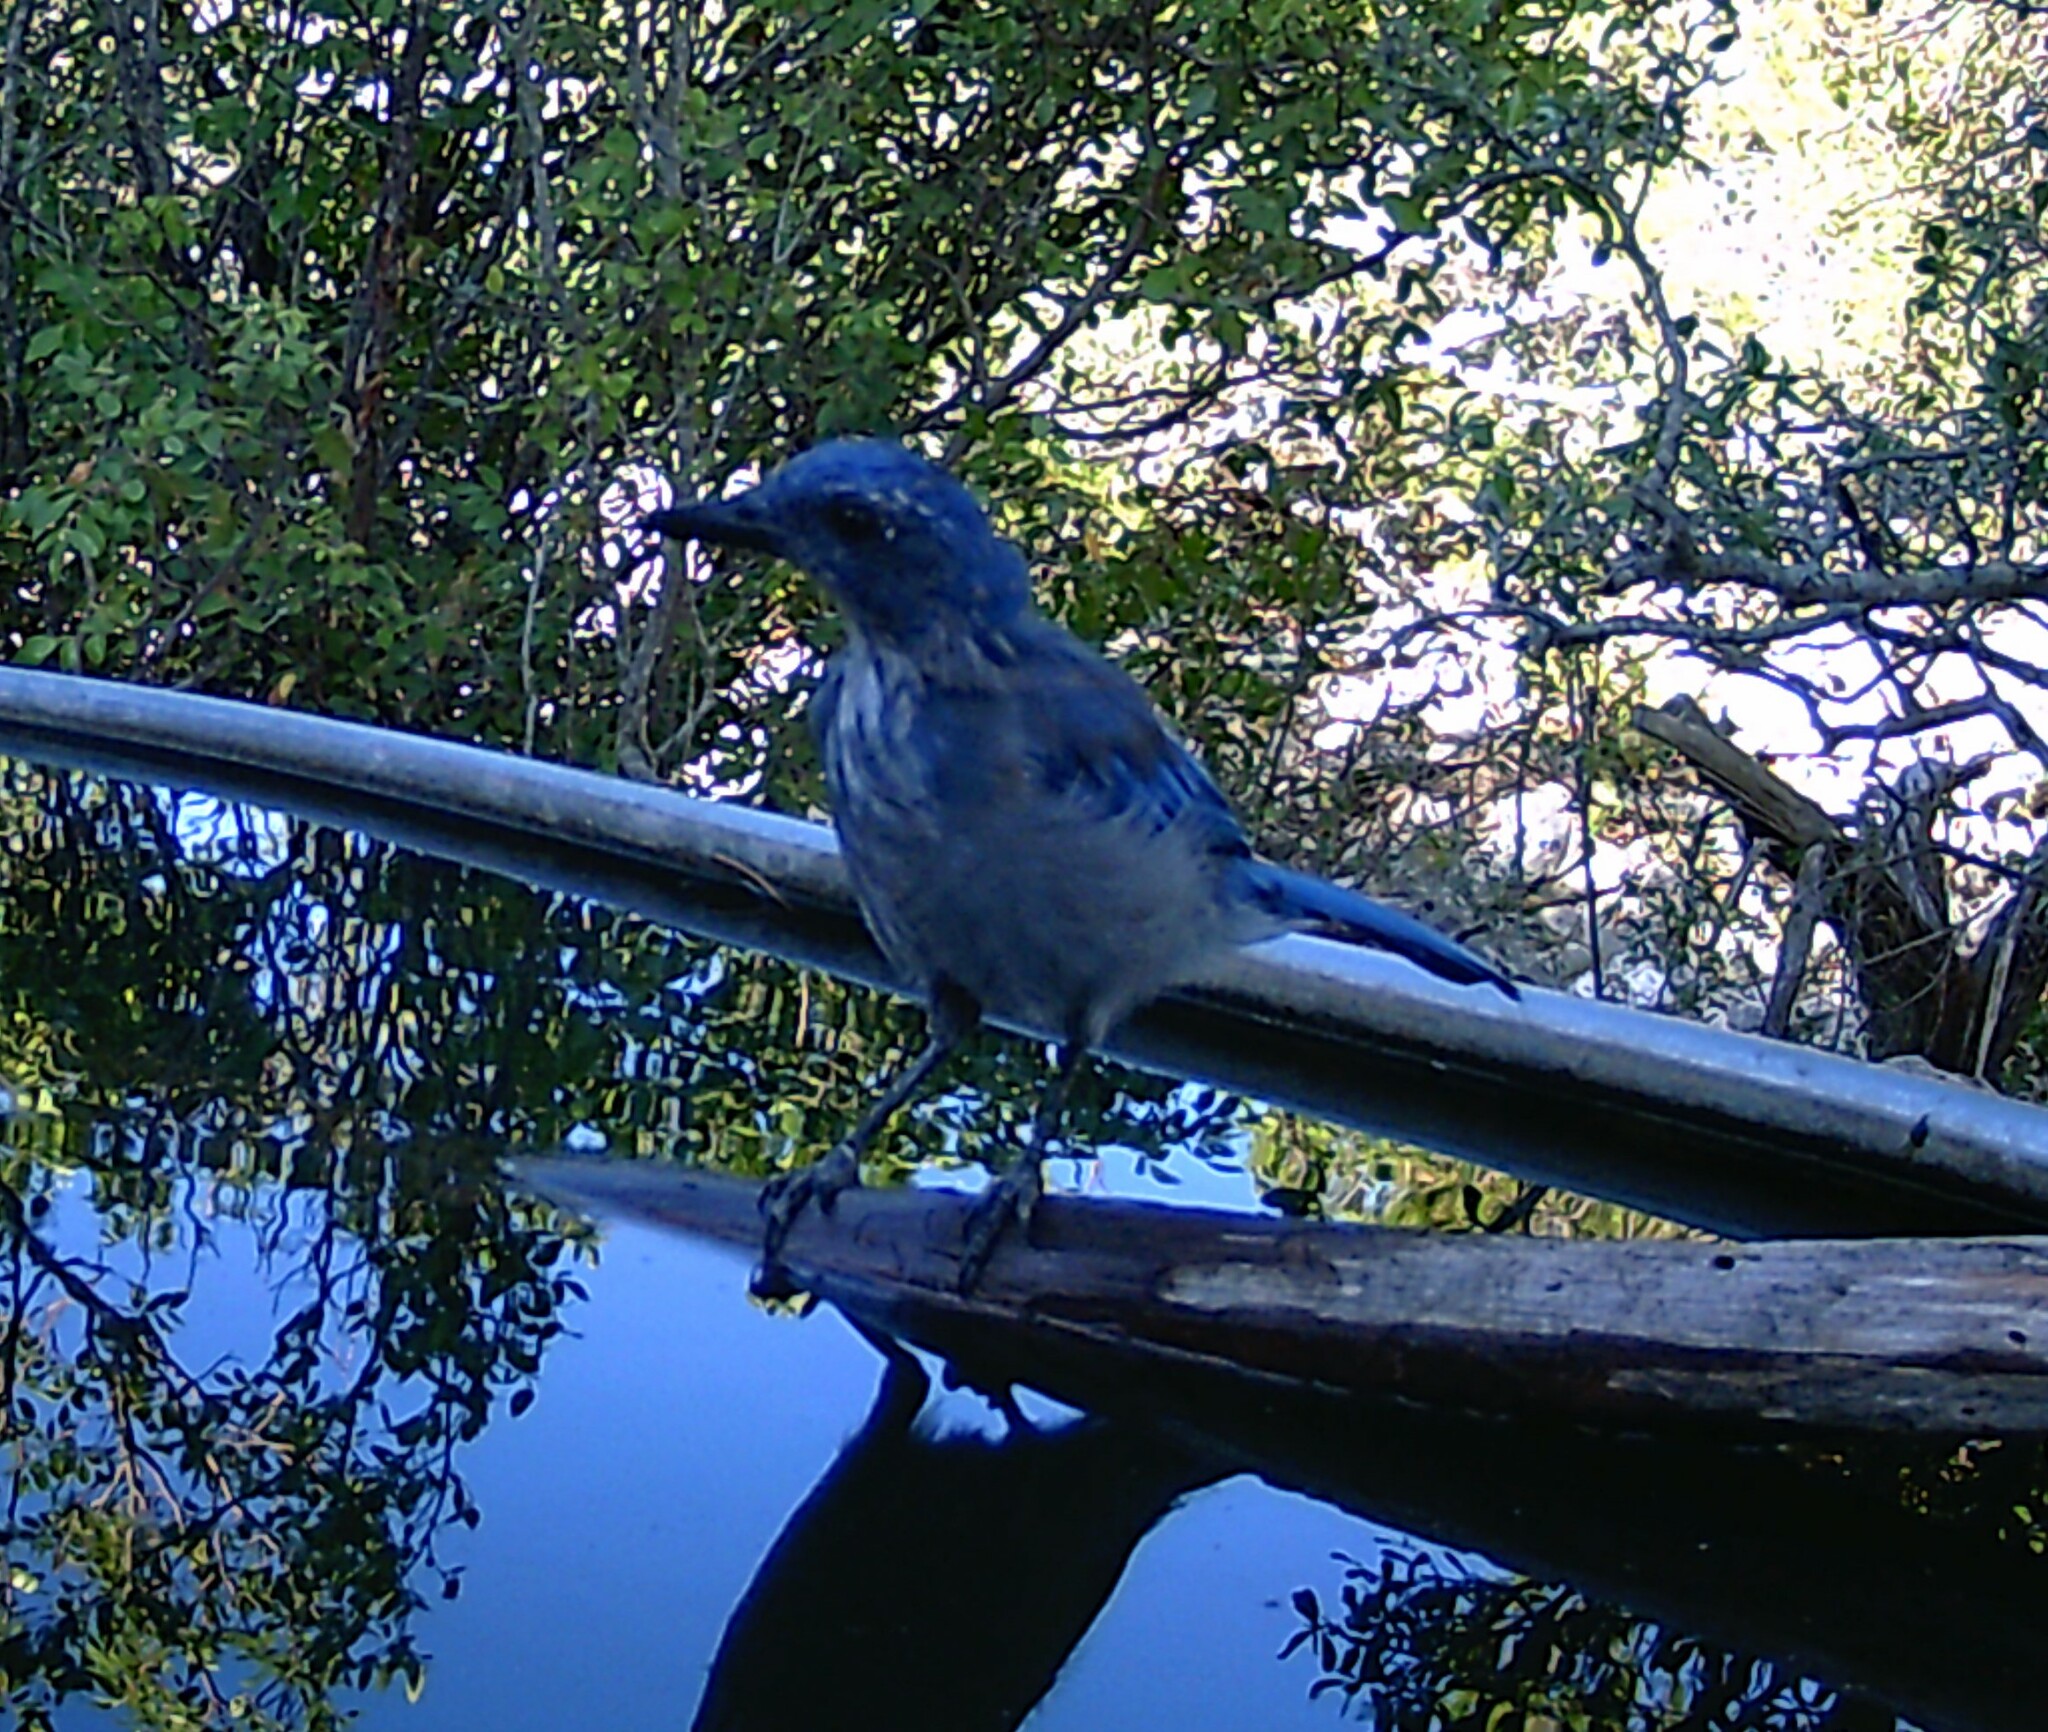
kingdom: Animalia
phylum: Chordata
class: Aves
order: Passeriformes
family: Corvidae
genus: Aphelocoma
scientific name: Aphelocoma woodhouseii
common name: Woodhouse's scrub-jay
